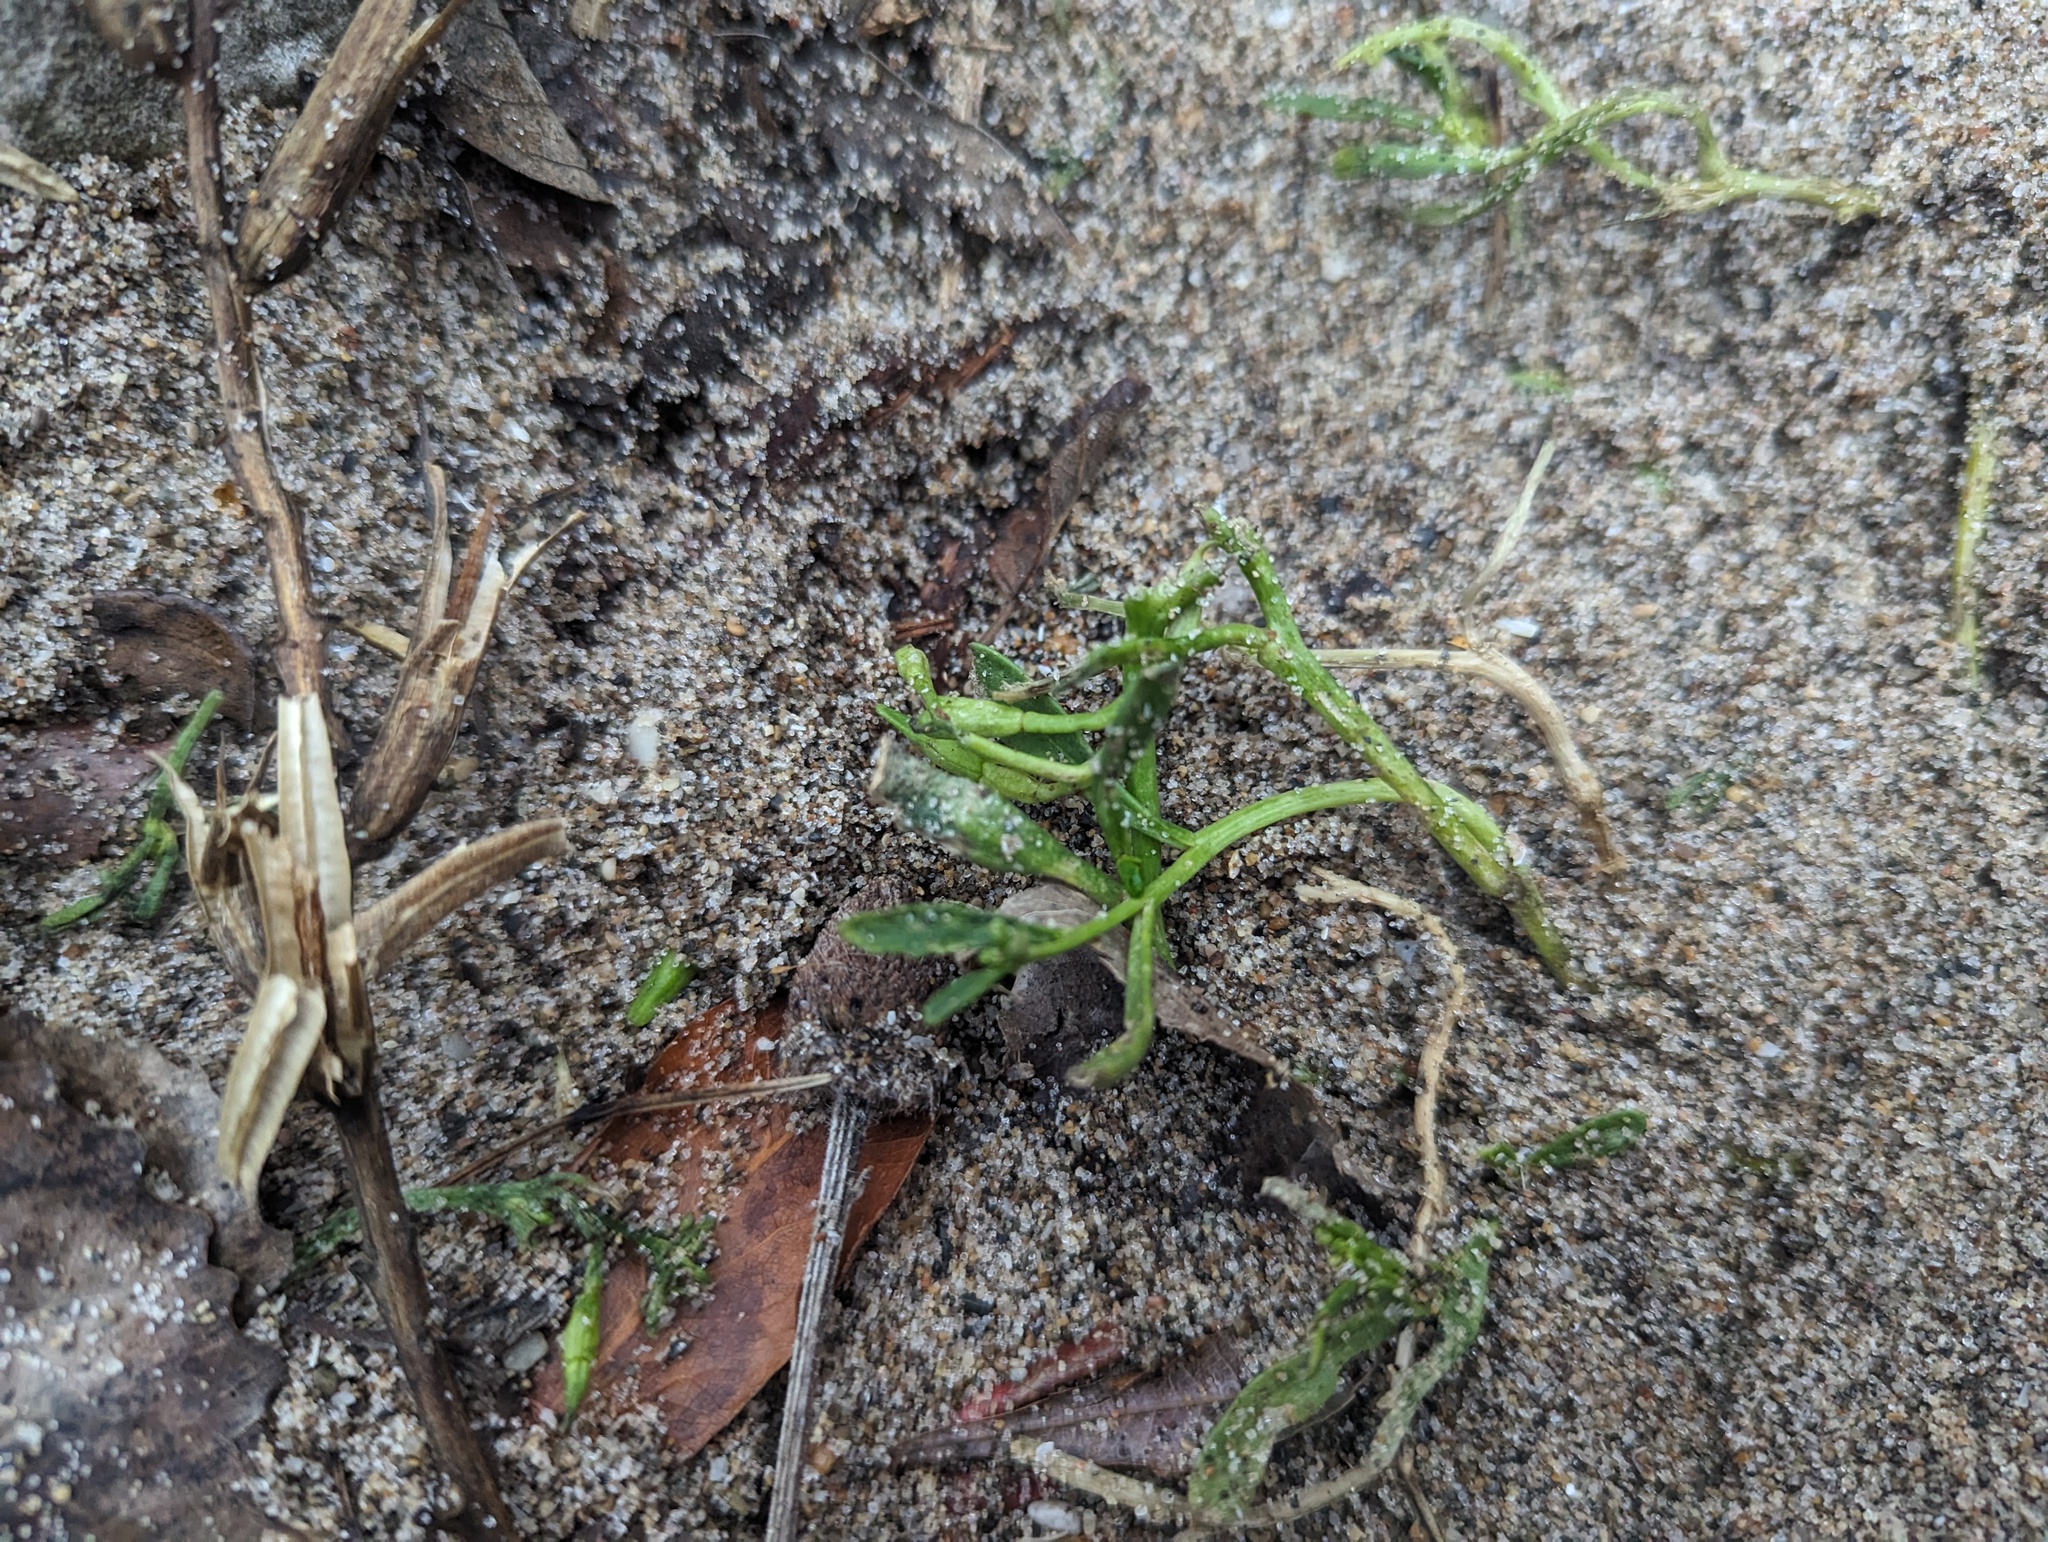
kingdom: Plantae
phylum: Tracheophyta
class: Magnoliopsida
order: Brassicales
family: Brassicaceae
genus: Cakile
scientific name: Cakile edentula
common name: American sea rocket
